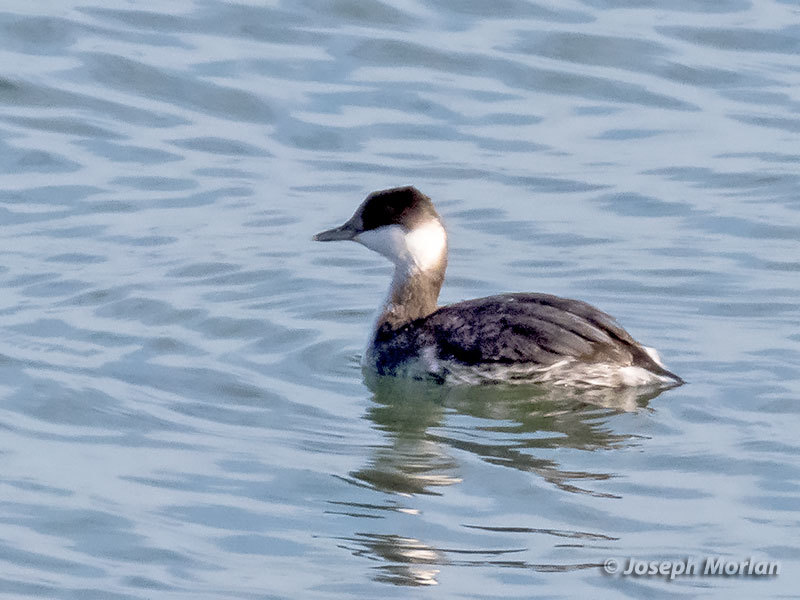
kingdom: Animalia
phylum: Chordata
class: Aves
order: Podicipediformes
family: Podicipedidae
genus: Podiceps
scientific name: Podiceps auritus
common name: Horned grebe
